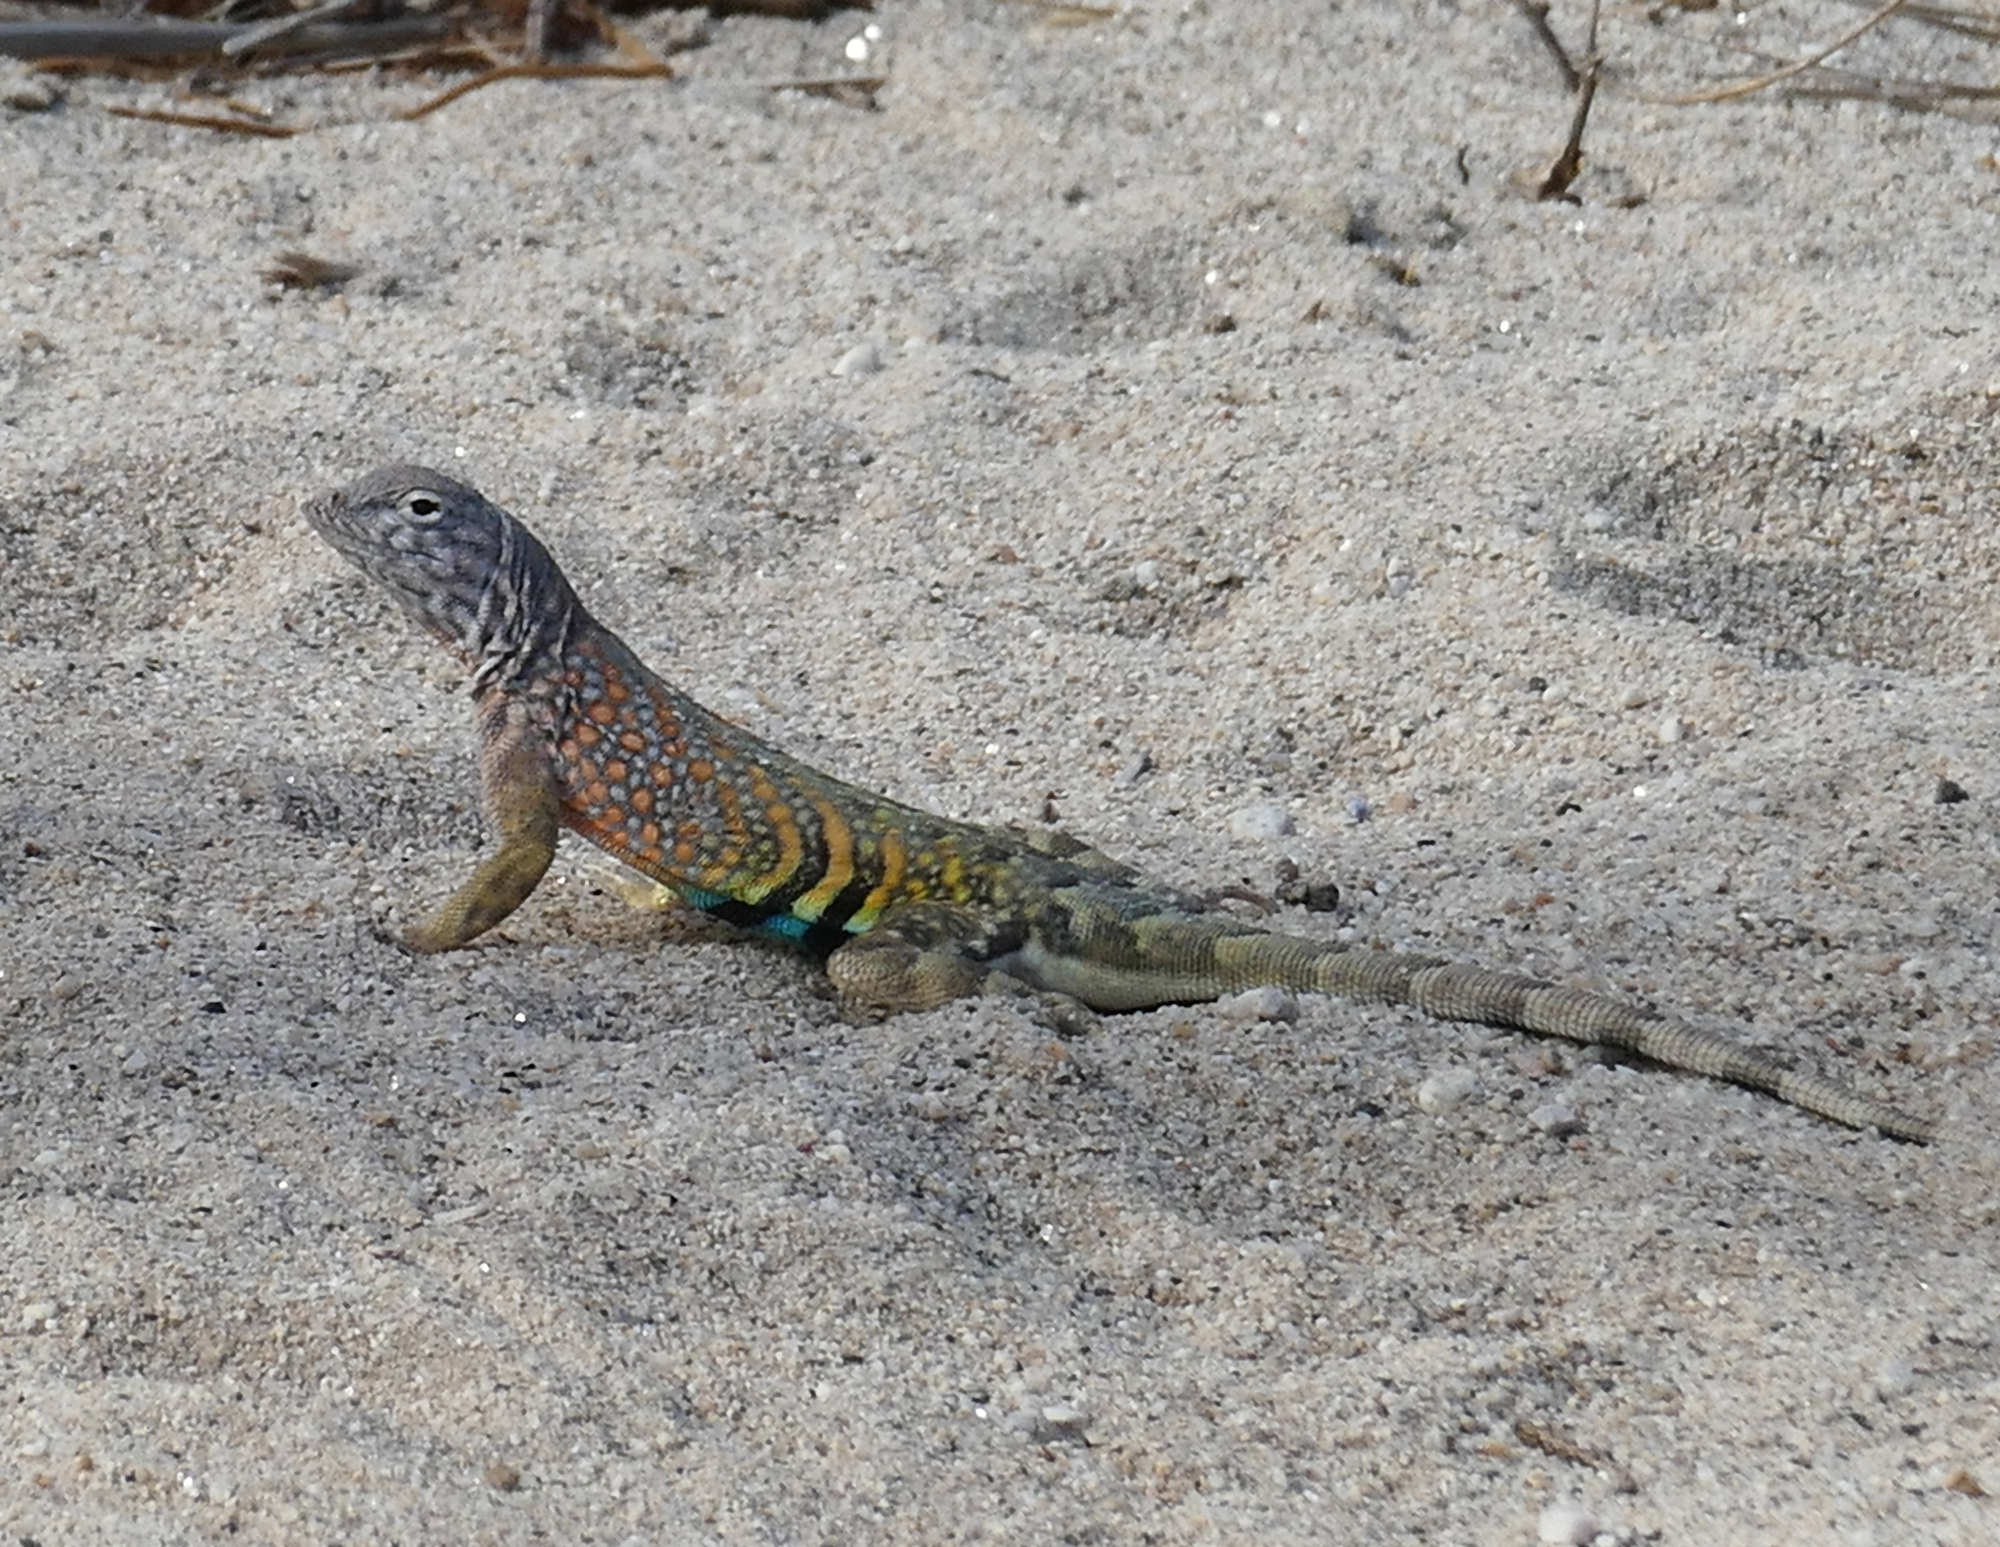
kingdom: Animalia
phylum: Chordata
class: Squamata
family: Phrynosomatidae
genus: Cophosaurus
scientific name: Cophosaurus texanus
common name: Greater earless lizard
